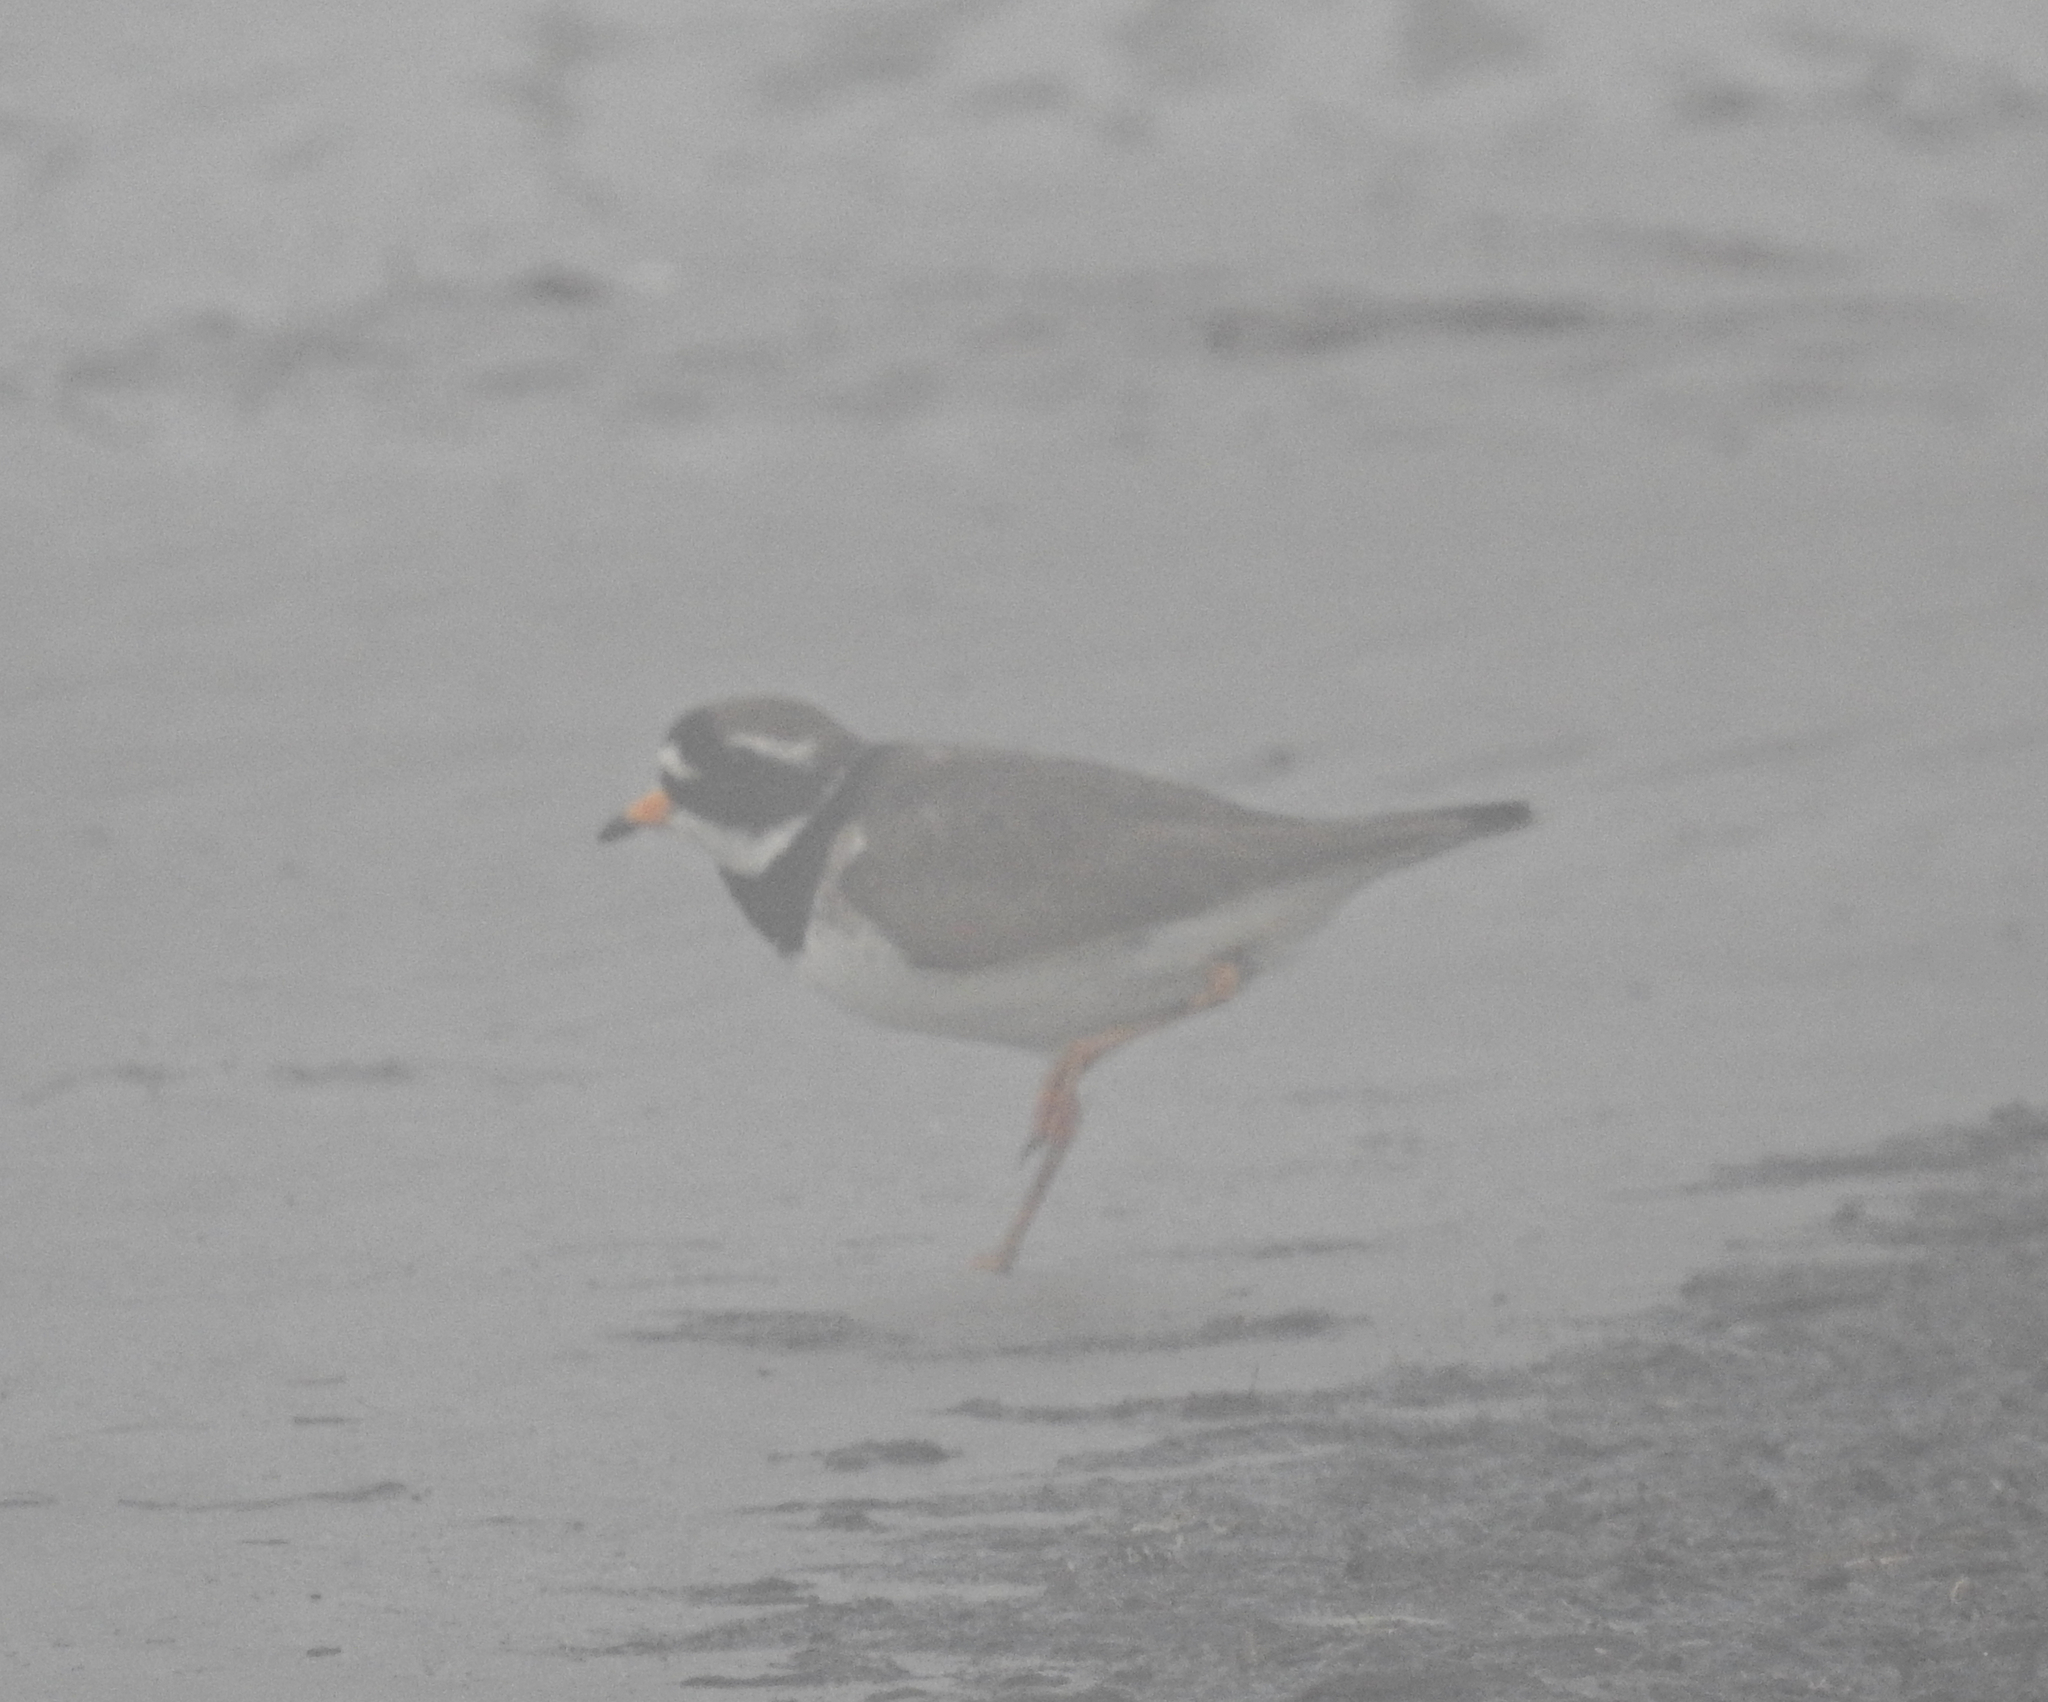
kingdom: Animalia
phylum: Chordata
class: Aves
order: Charadriiformes
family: Charadriidae
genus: Charadrius
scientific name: Charadrius hiaticula
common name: Common ringed plover
